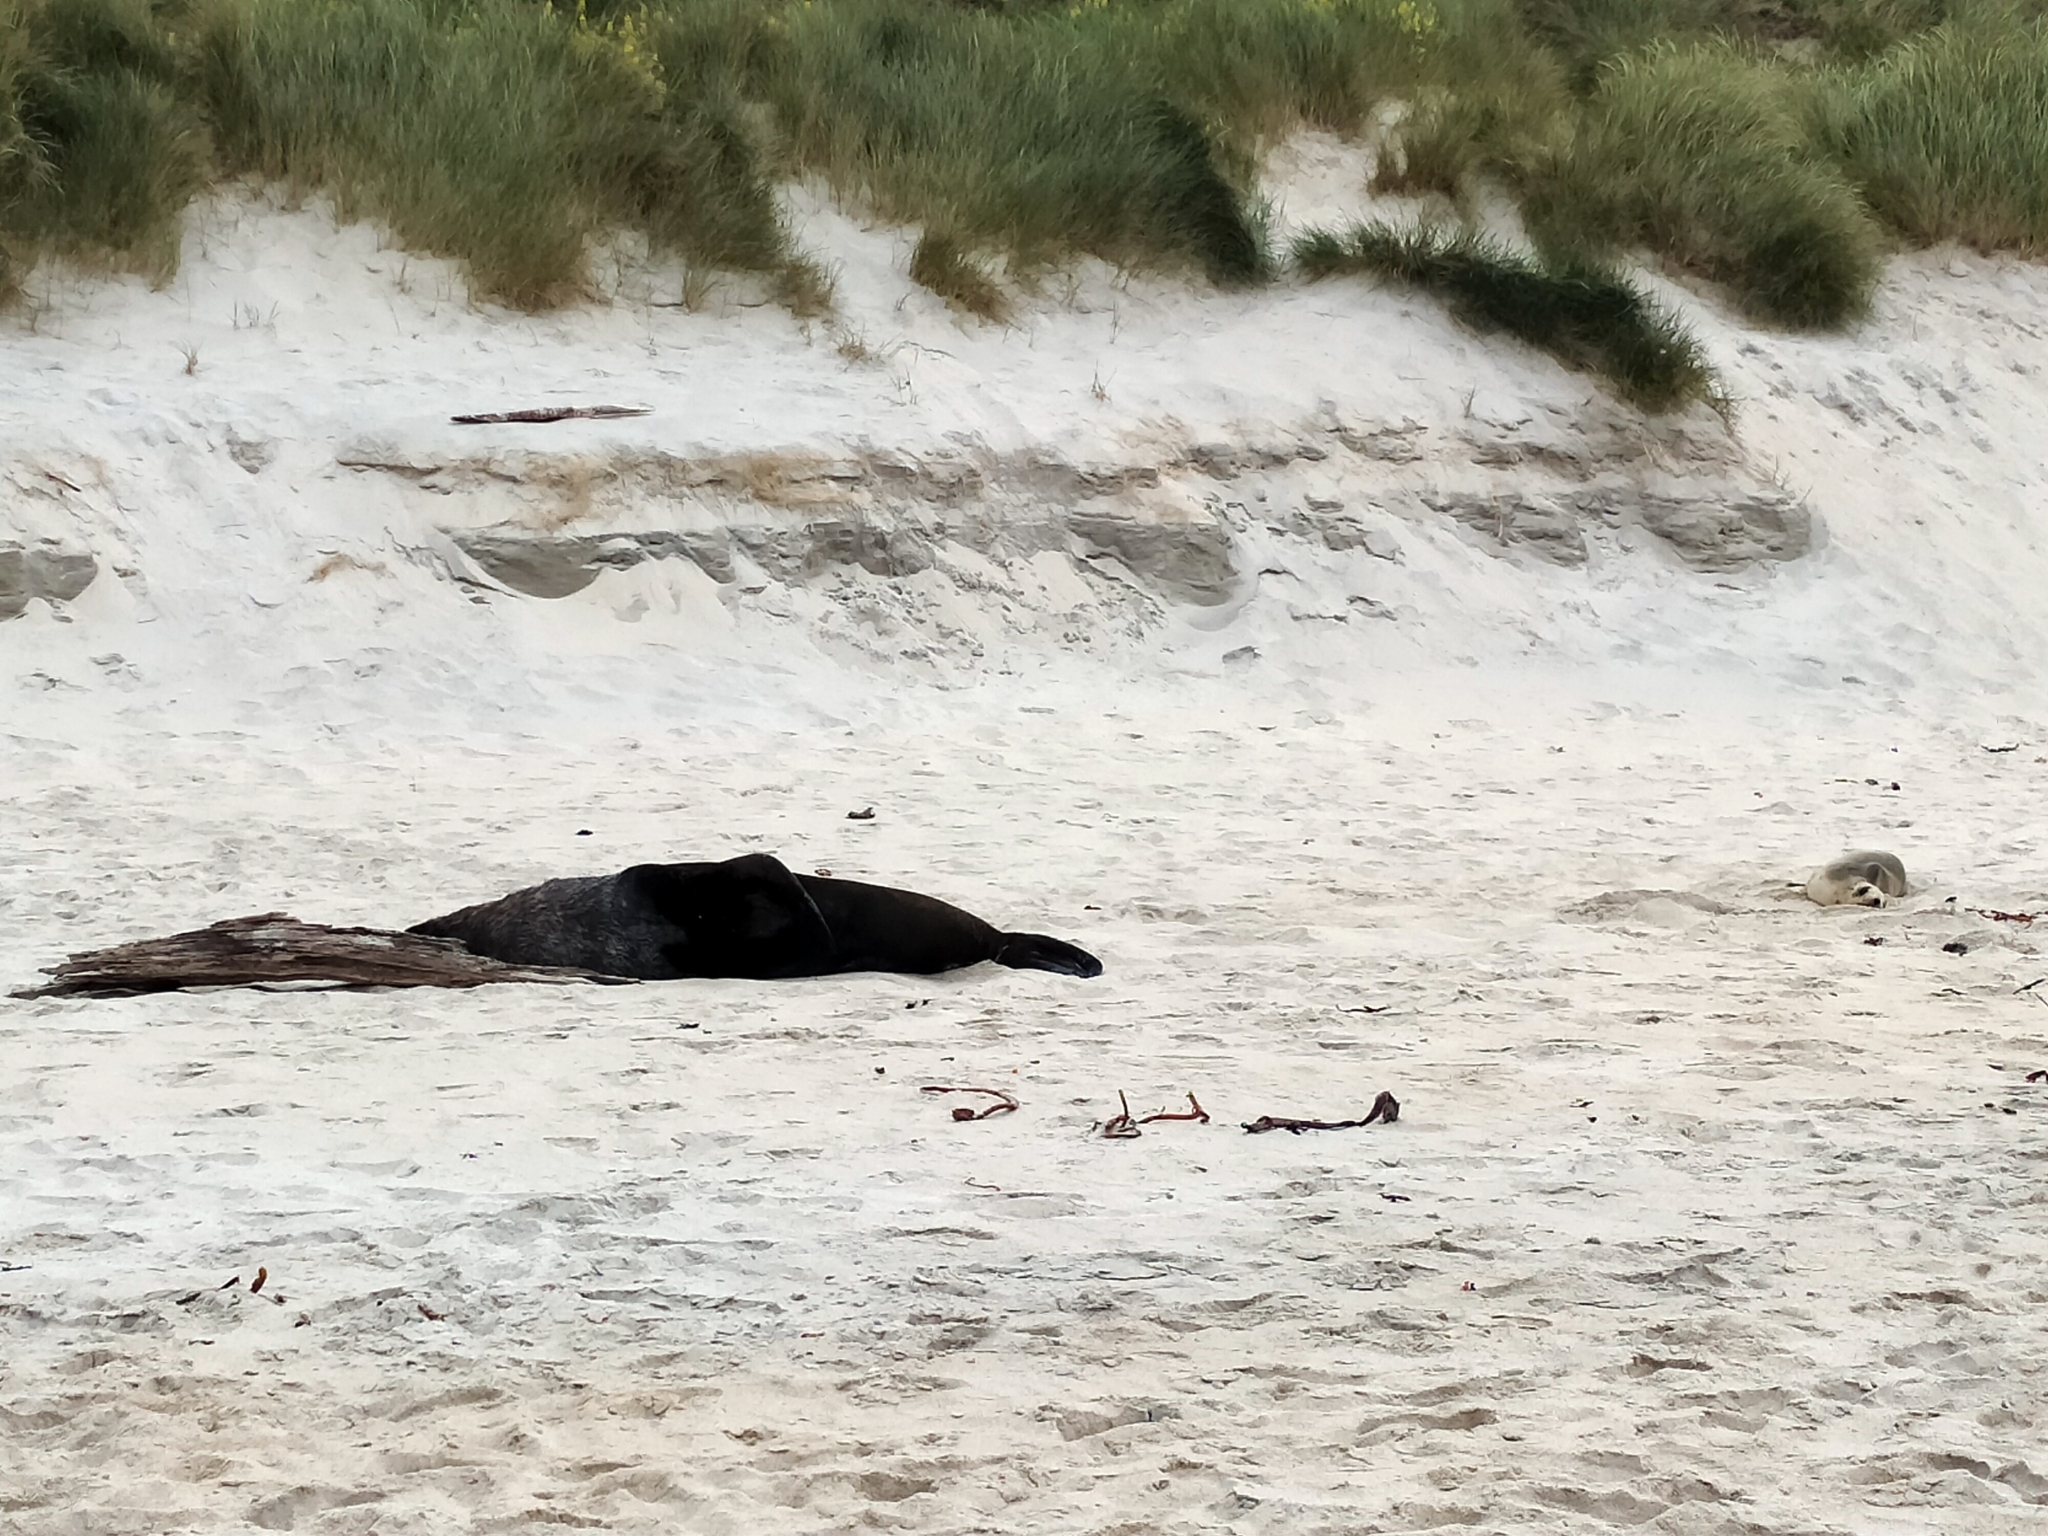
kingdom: Animalia
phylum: Chordata
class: Mammalia
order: Carnivora
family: Otariidae
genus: Phocarctos
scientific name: Phocarctos hookeri
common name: New zealand sea lion
